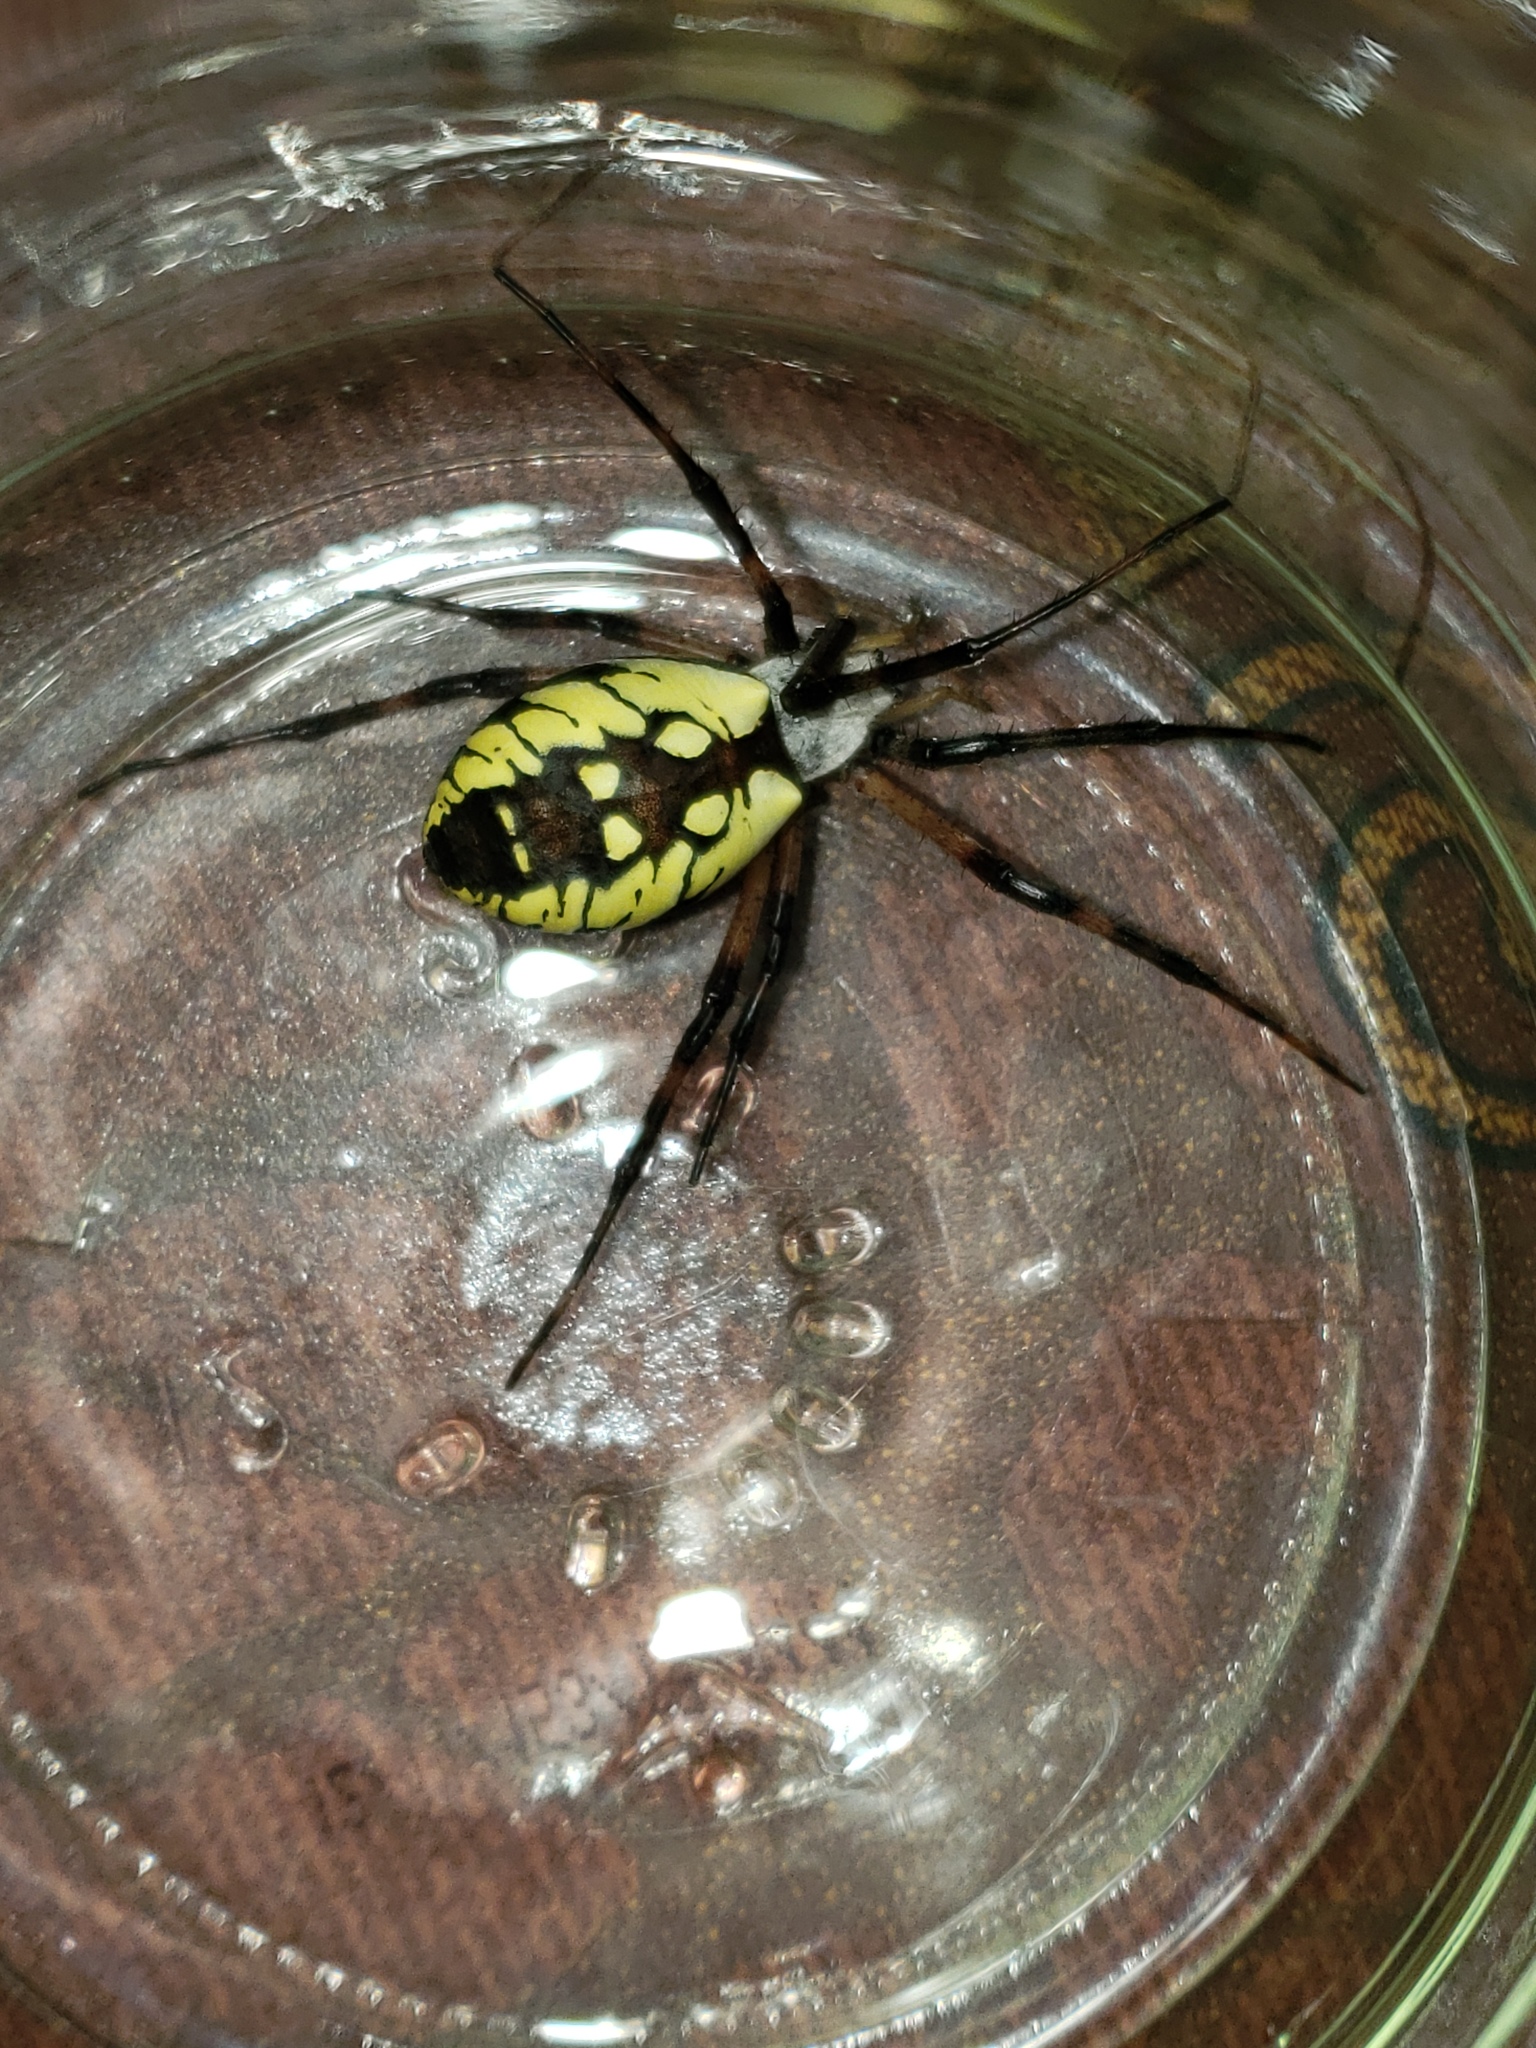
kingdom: Animalia
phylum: Arthropoda
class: Arachnida
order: Araneae
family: Araneidae
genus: Argiope
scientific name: Argiope aurantia
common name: Orb weavers
